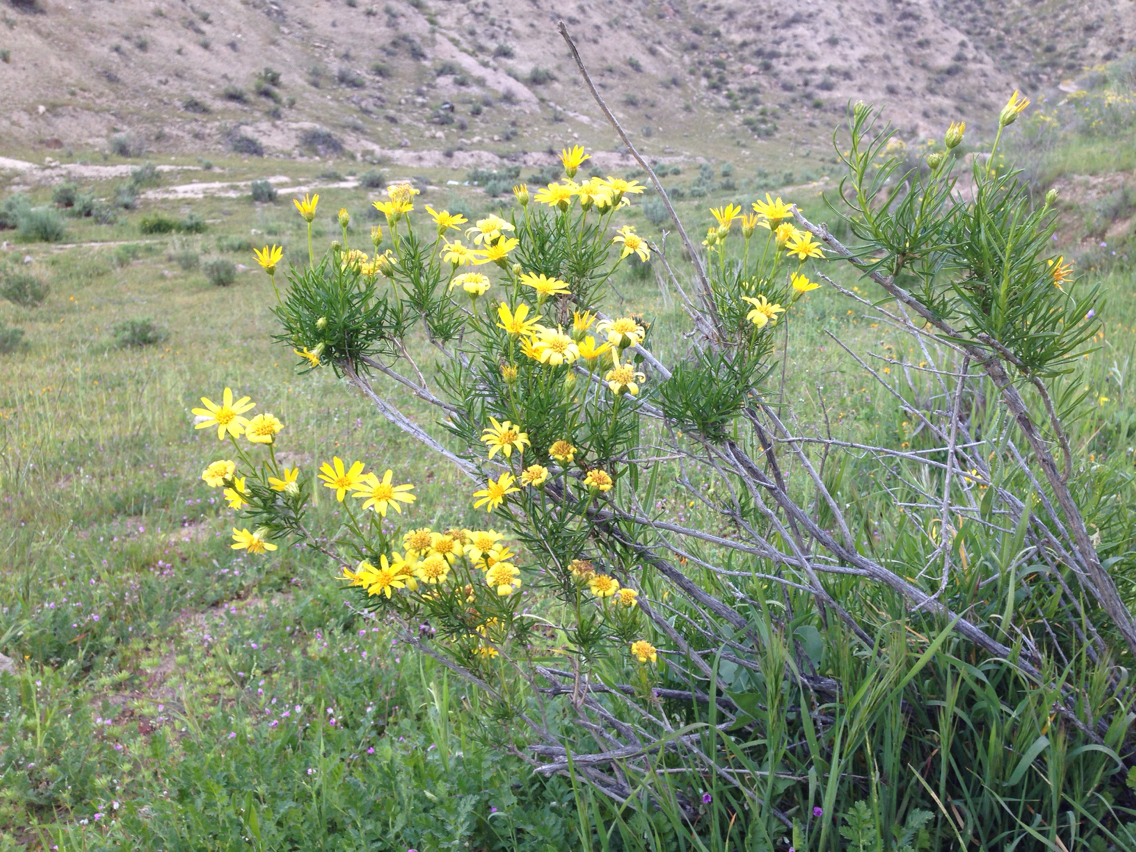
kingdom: Plantae
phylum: Tracheophyta
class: Magnoliopsida
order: Asterales
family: Asteraceae
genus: Ericameria
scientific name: Ericameria linearifolia
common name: Interior goldenbush
